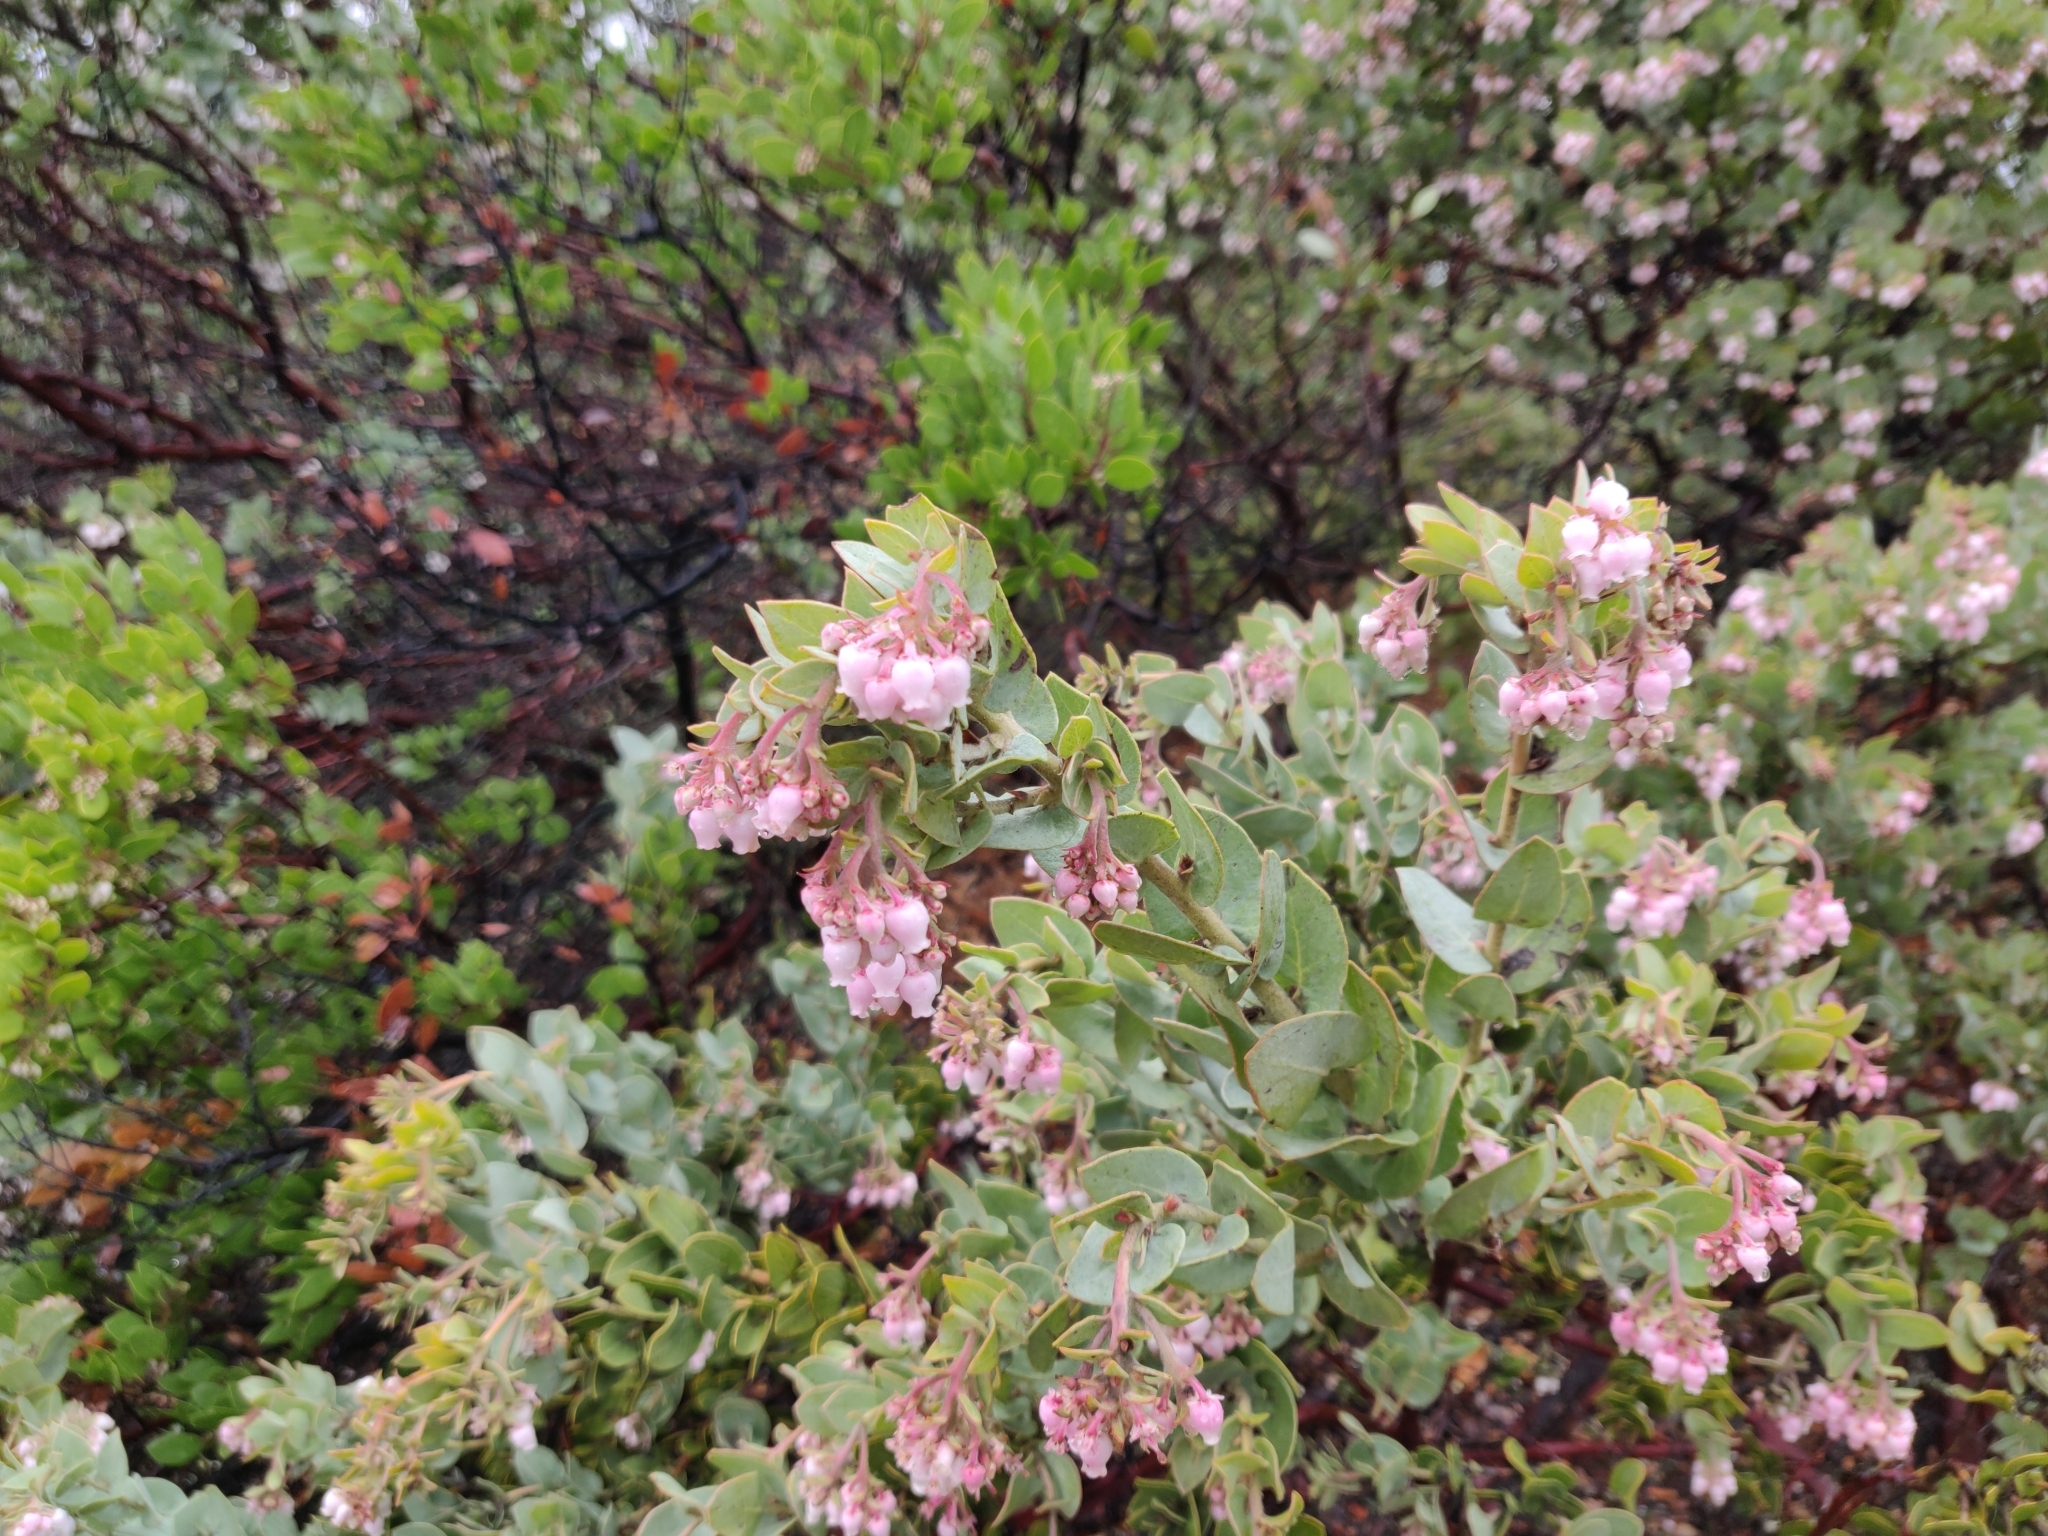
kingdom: Plantae
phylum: Tracheophyta
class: Magnoliopsida
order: Ericales
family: Ericaceae
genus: Arctostaphylos
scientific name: Arctostaphylos auriculata
